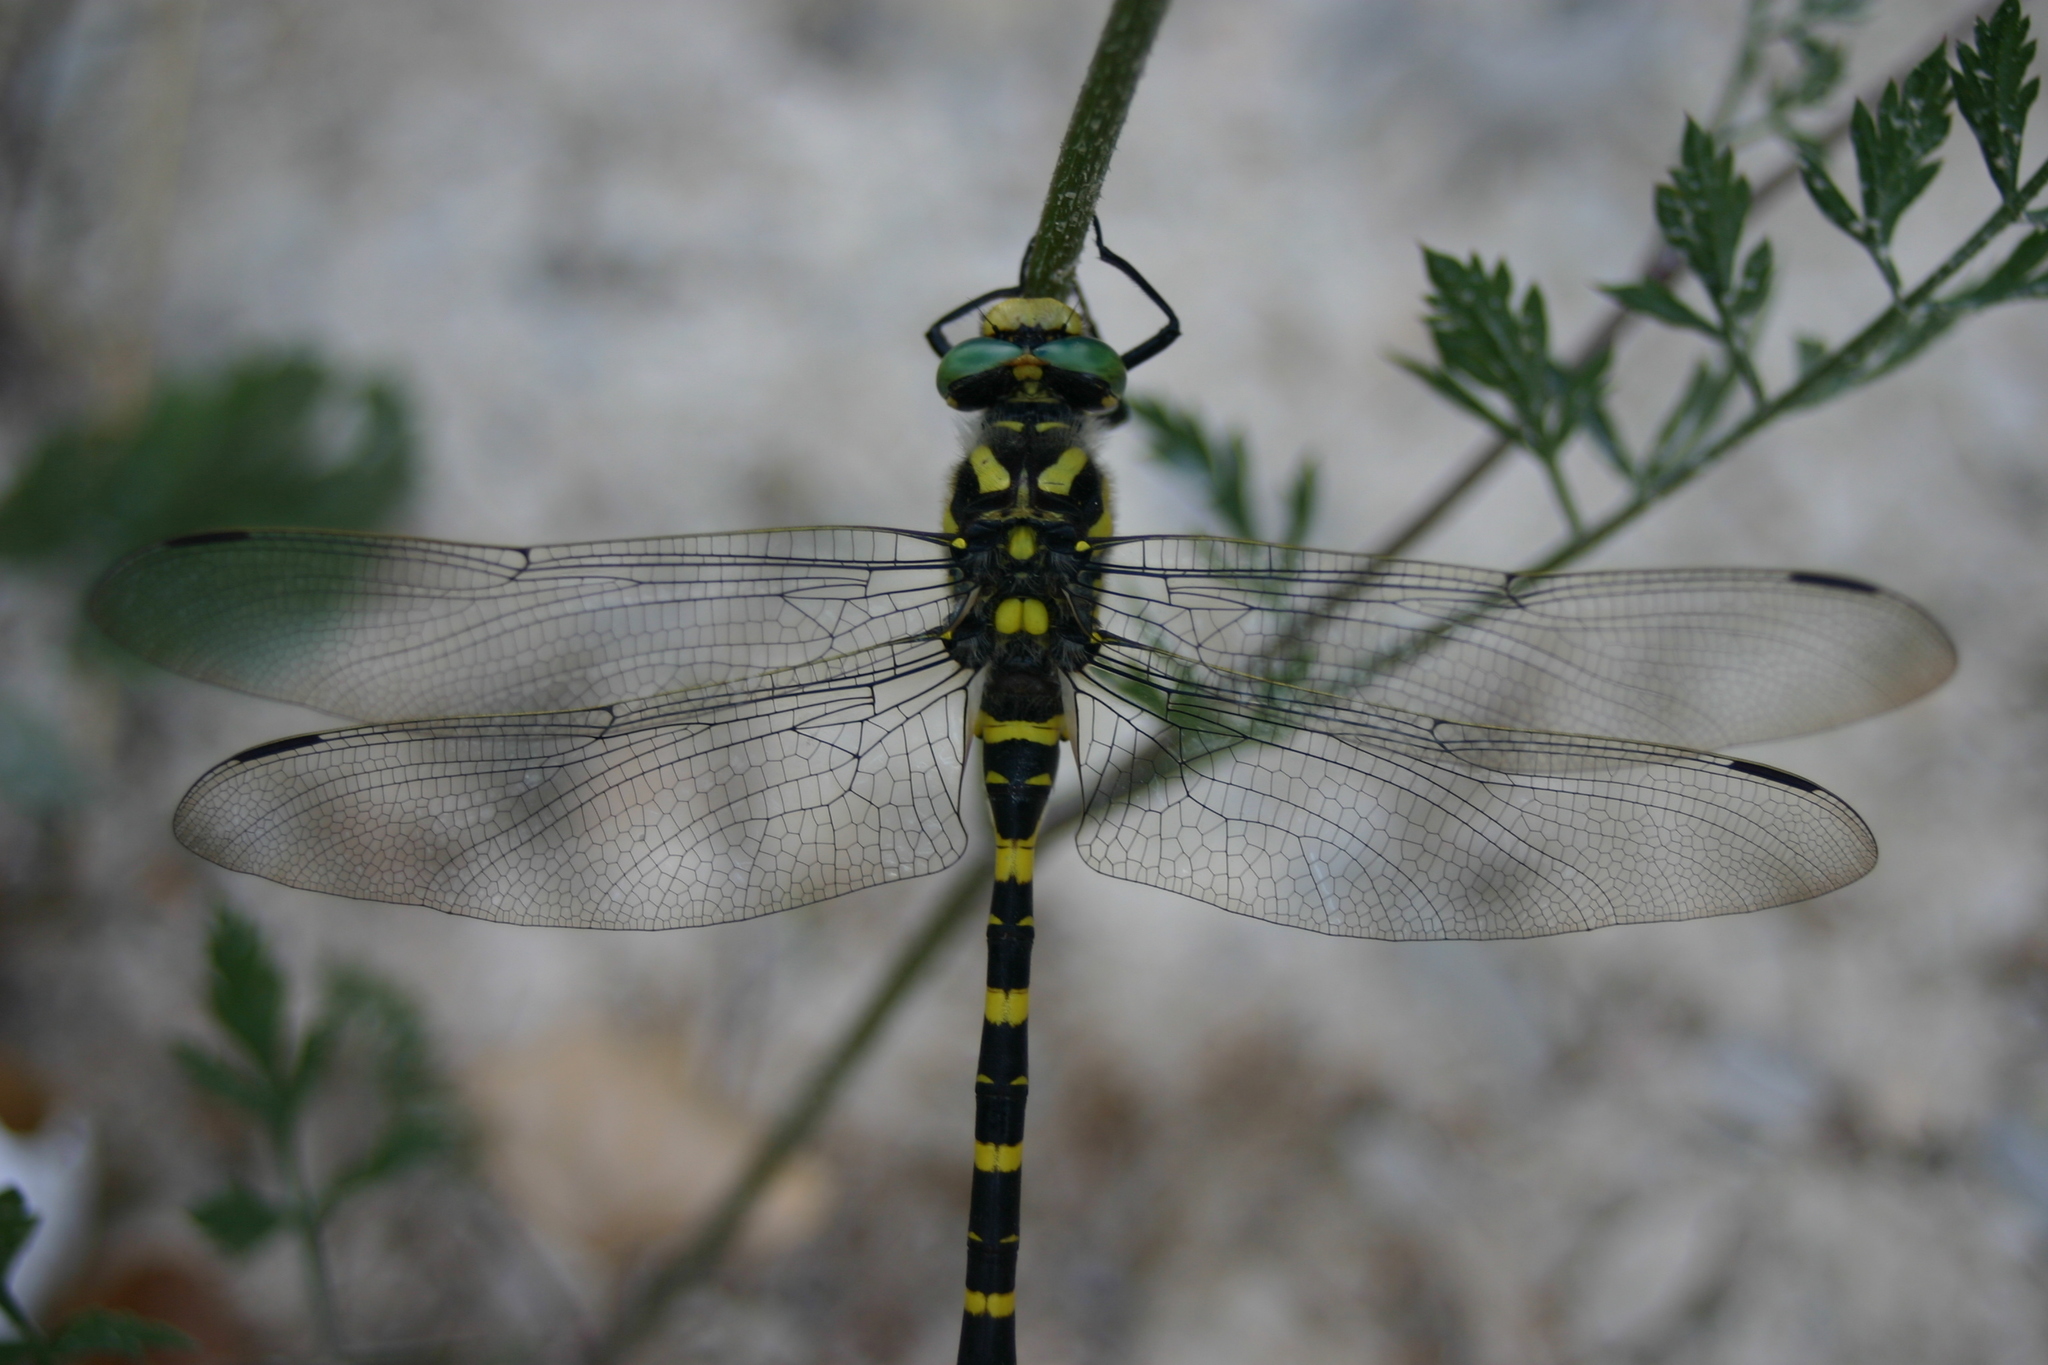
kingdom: Animalia
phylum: Arthropoda
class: Insecta
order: Odonata
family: Cordulegastridae
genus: Cordulegaster
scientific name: Cordulegaster boltonii
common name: Golden-ringed dragonfly
